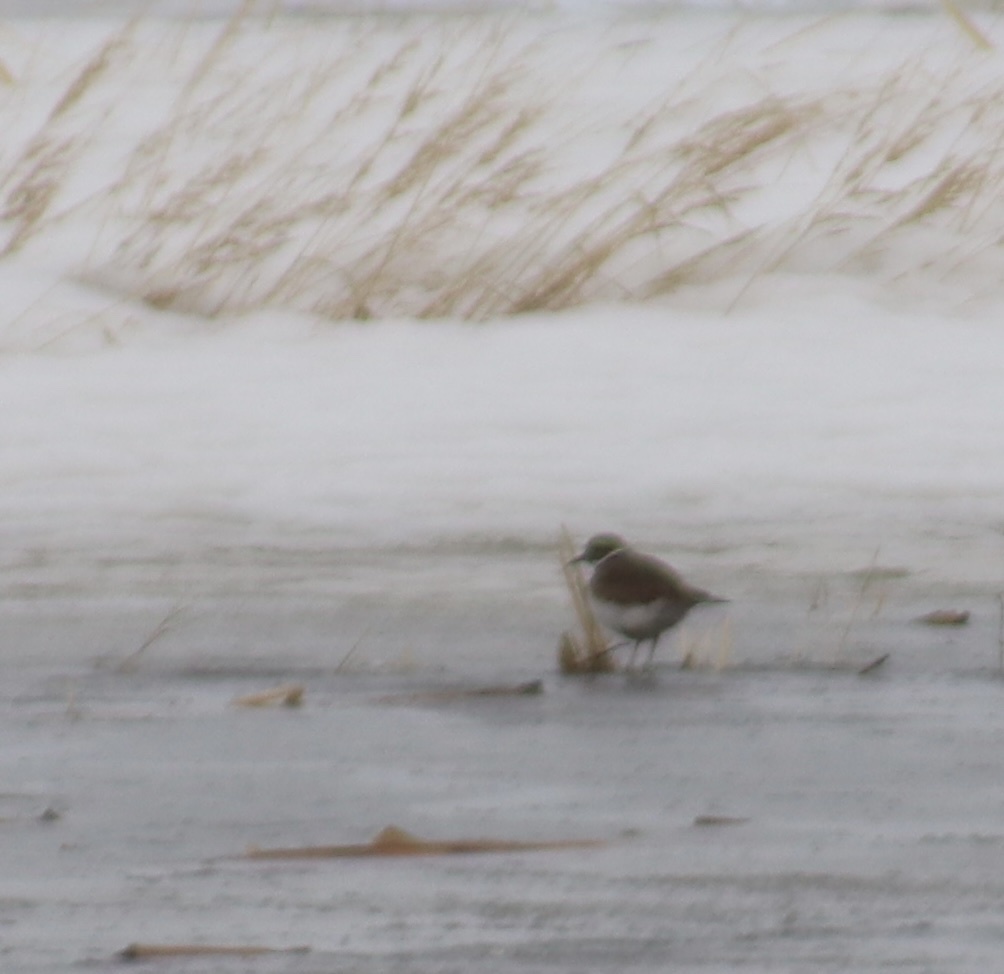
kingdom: Animalia
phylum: Chordata
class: Aves
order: Charadriiformes
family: Charadriidae
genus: Charadrius
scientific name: Charadrius vociferus
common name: Killdeer
